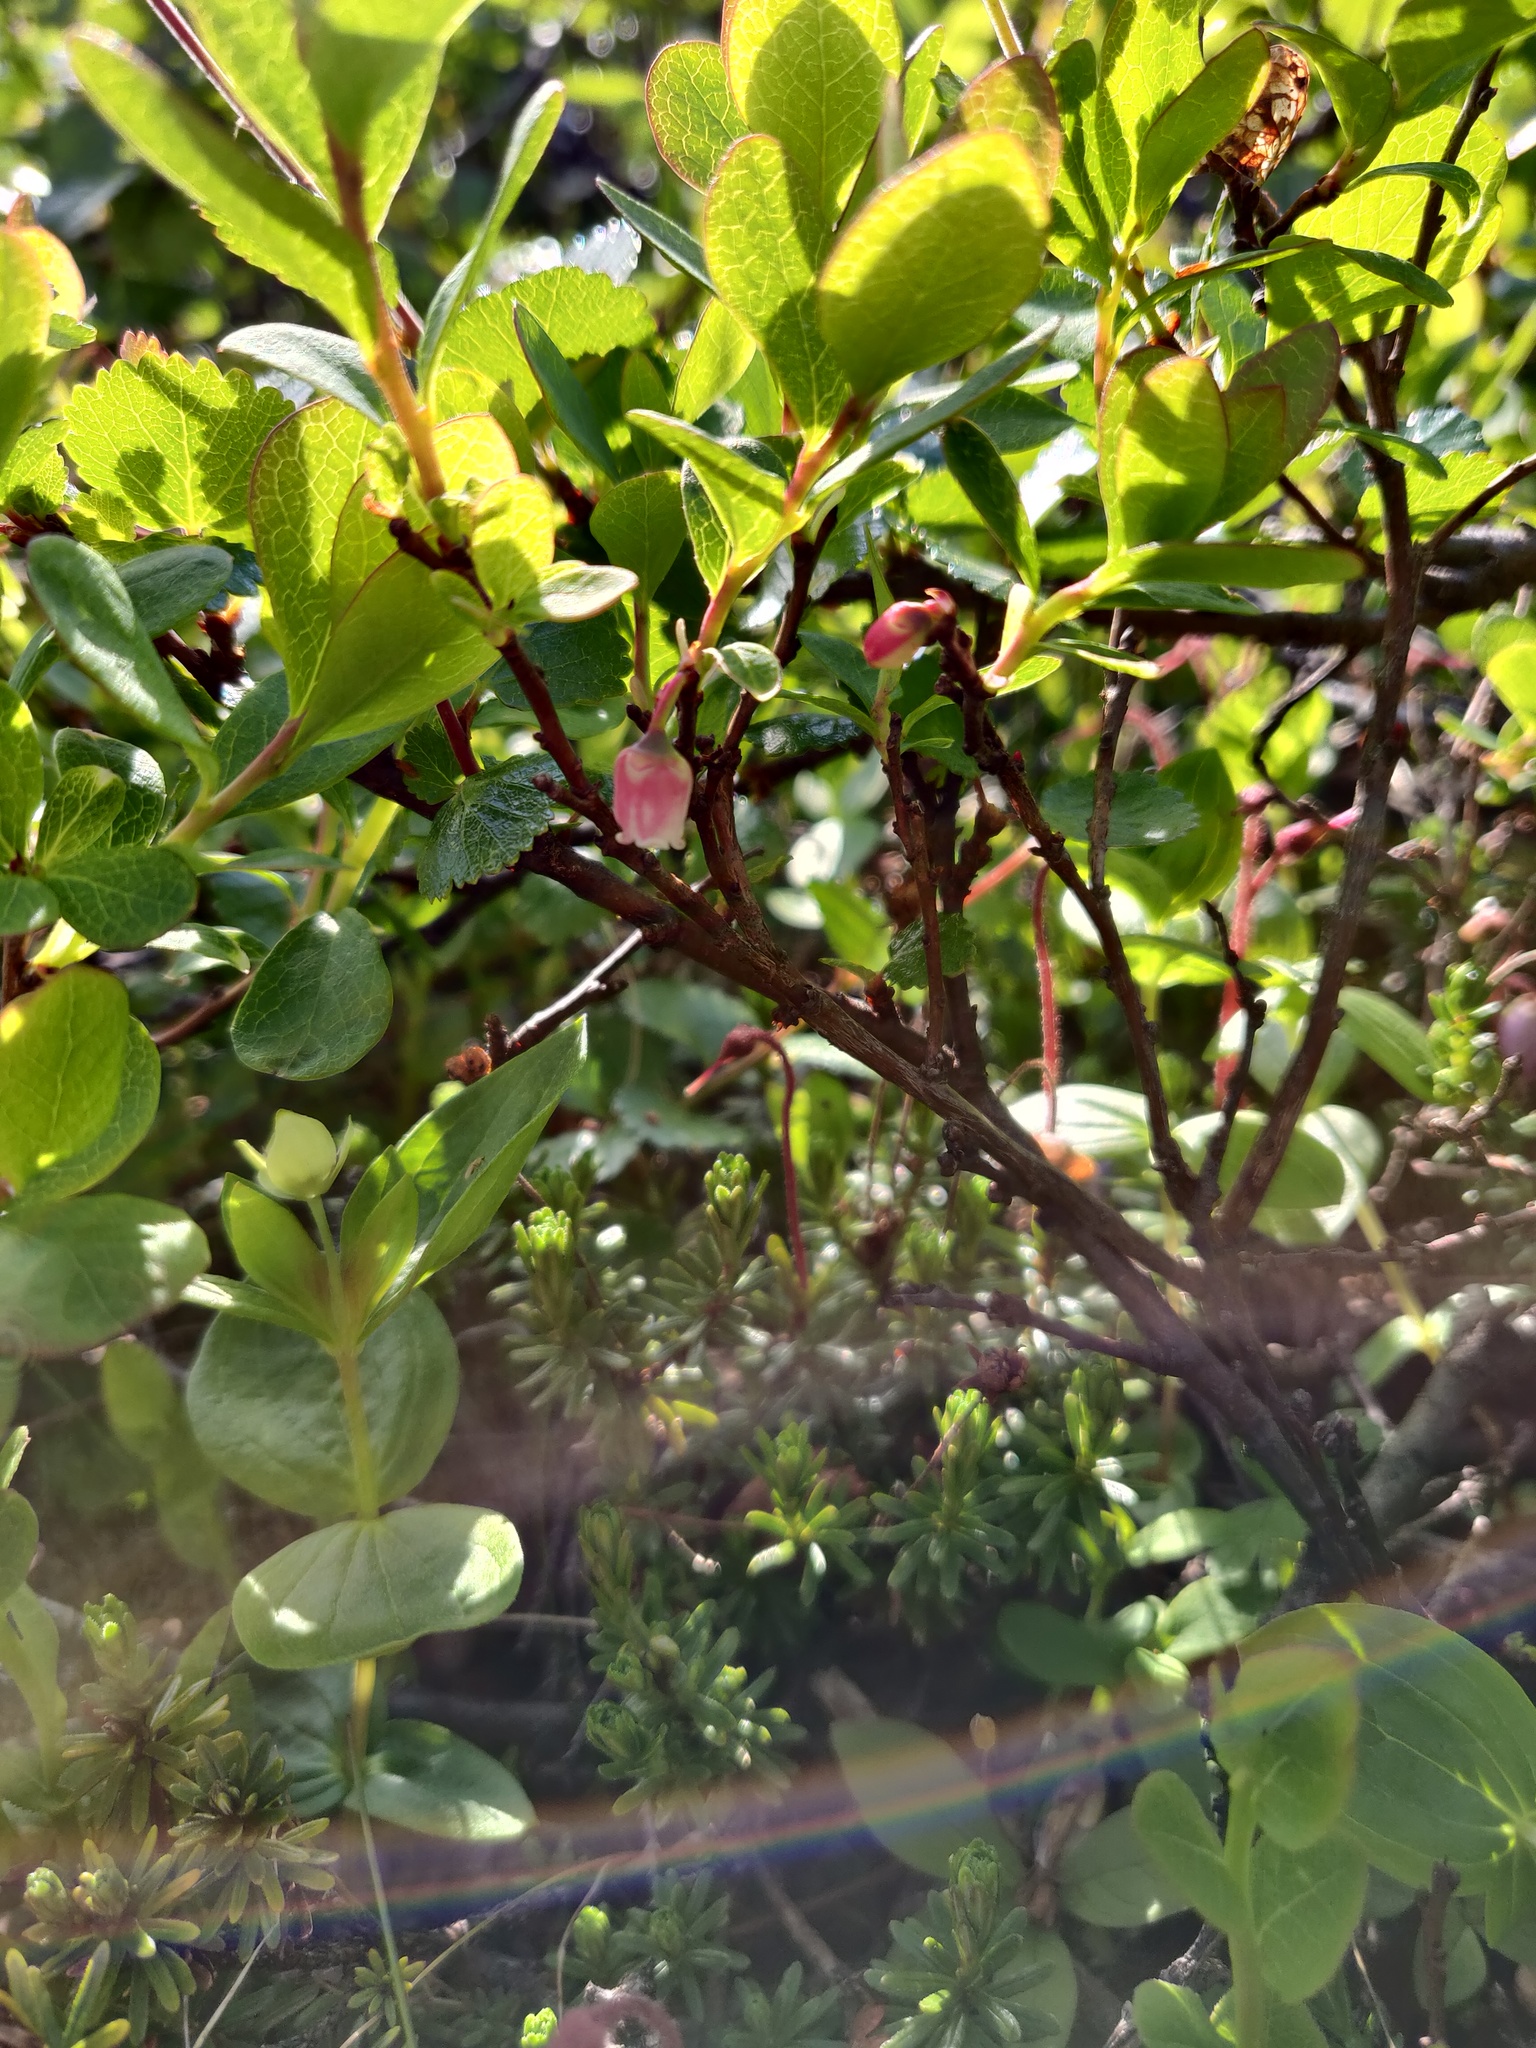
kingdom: Plantae
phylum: Tracheophyta
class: Magnoliopsida
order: Ericales
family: Ericaceae
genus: Vaccinium
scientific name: Vaccinium uliginosum
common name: Bog bilberry
